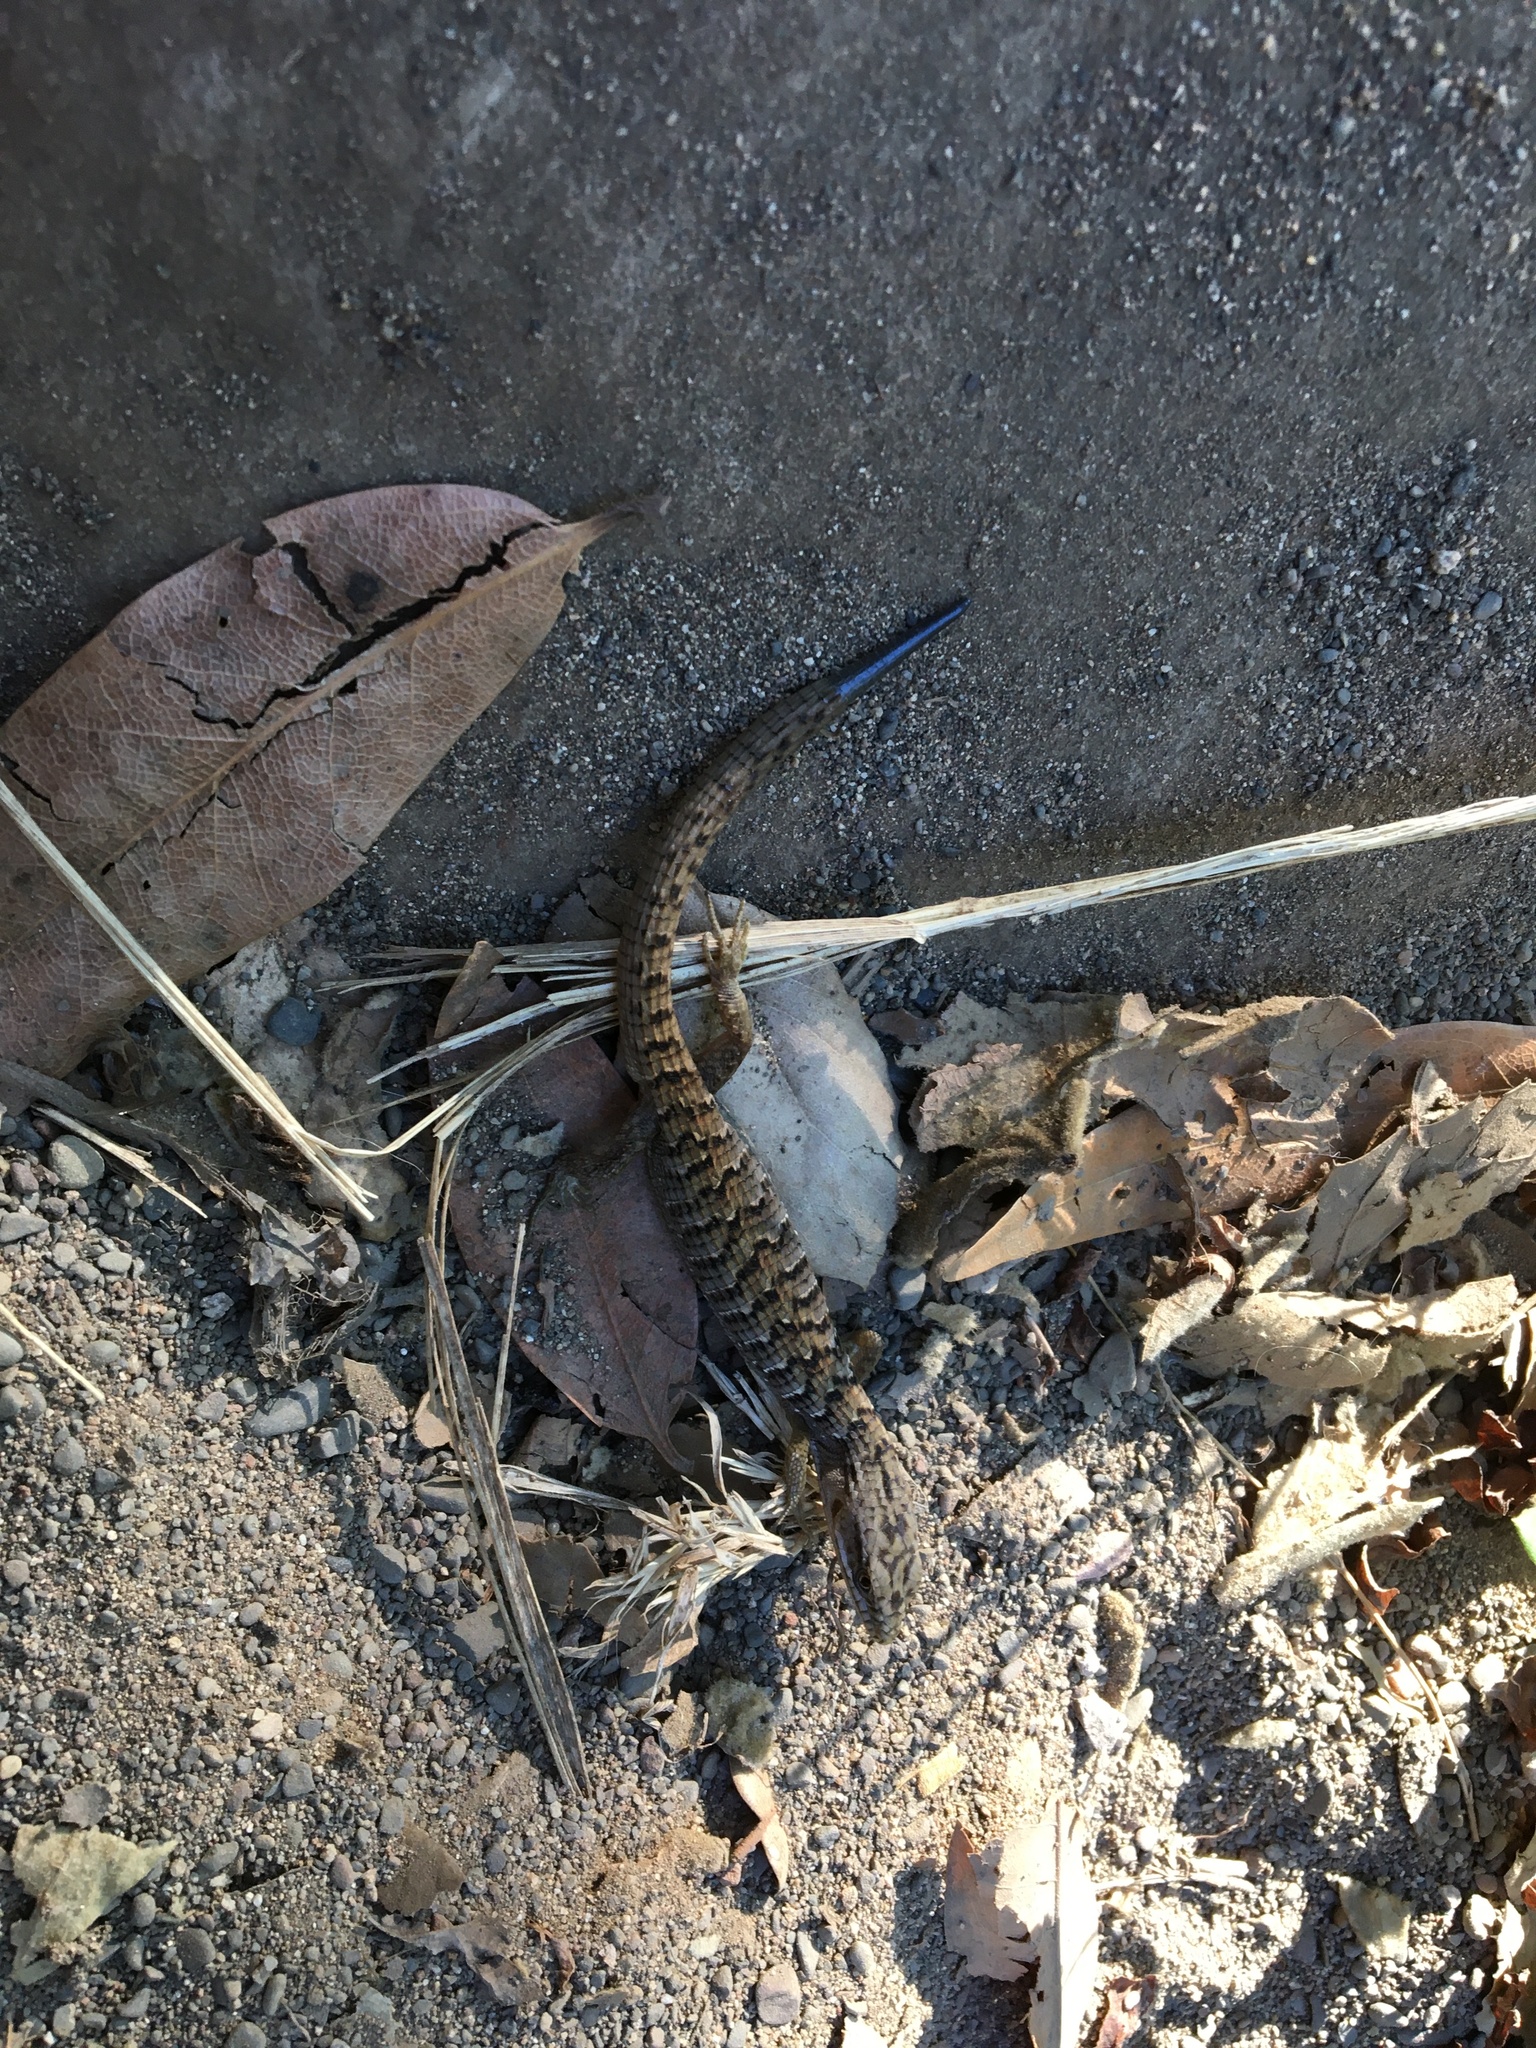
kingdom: Animalia
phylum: Chordata
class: Squamata
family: Anguidae
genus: Elgaria
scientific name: Elgaria multicarinata
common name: Southern alligator lizard
